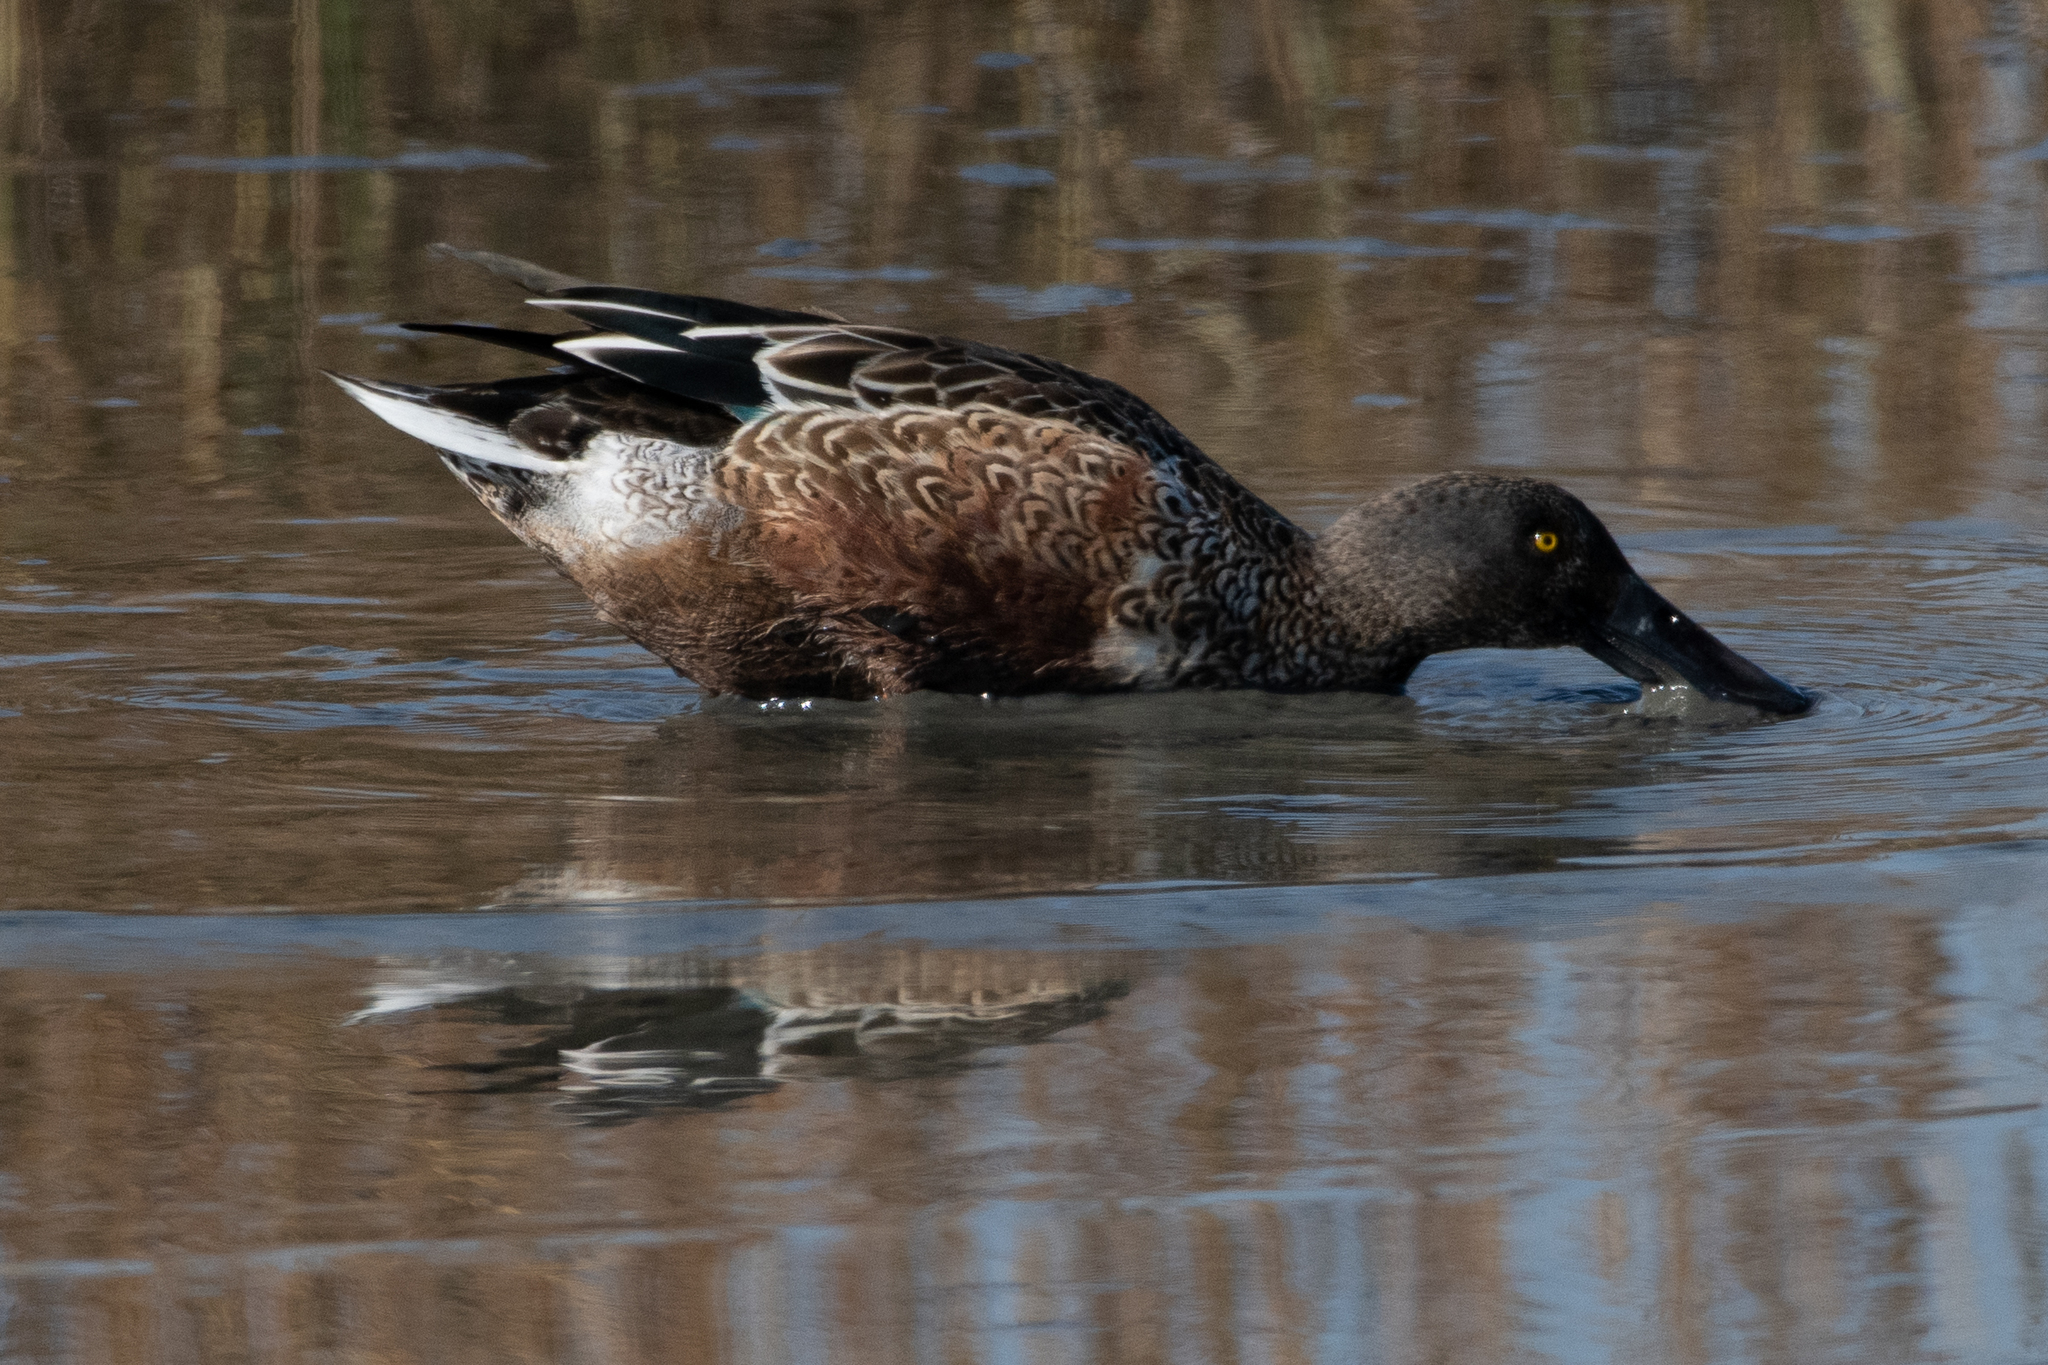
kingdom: Animalia
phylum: Chordata
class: Aves
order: Anseriformes
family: Anatidae
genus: Spatula
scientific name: Spatula clypeata
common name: Northern shoveler
